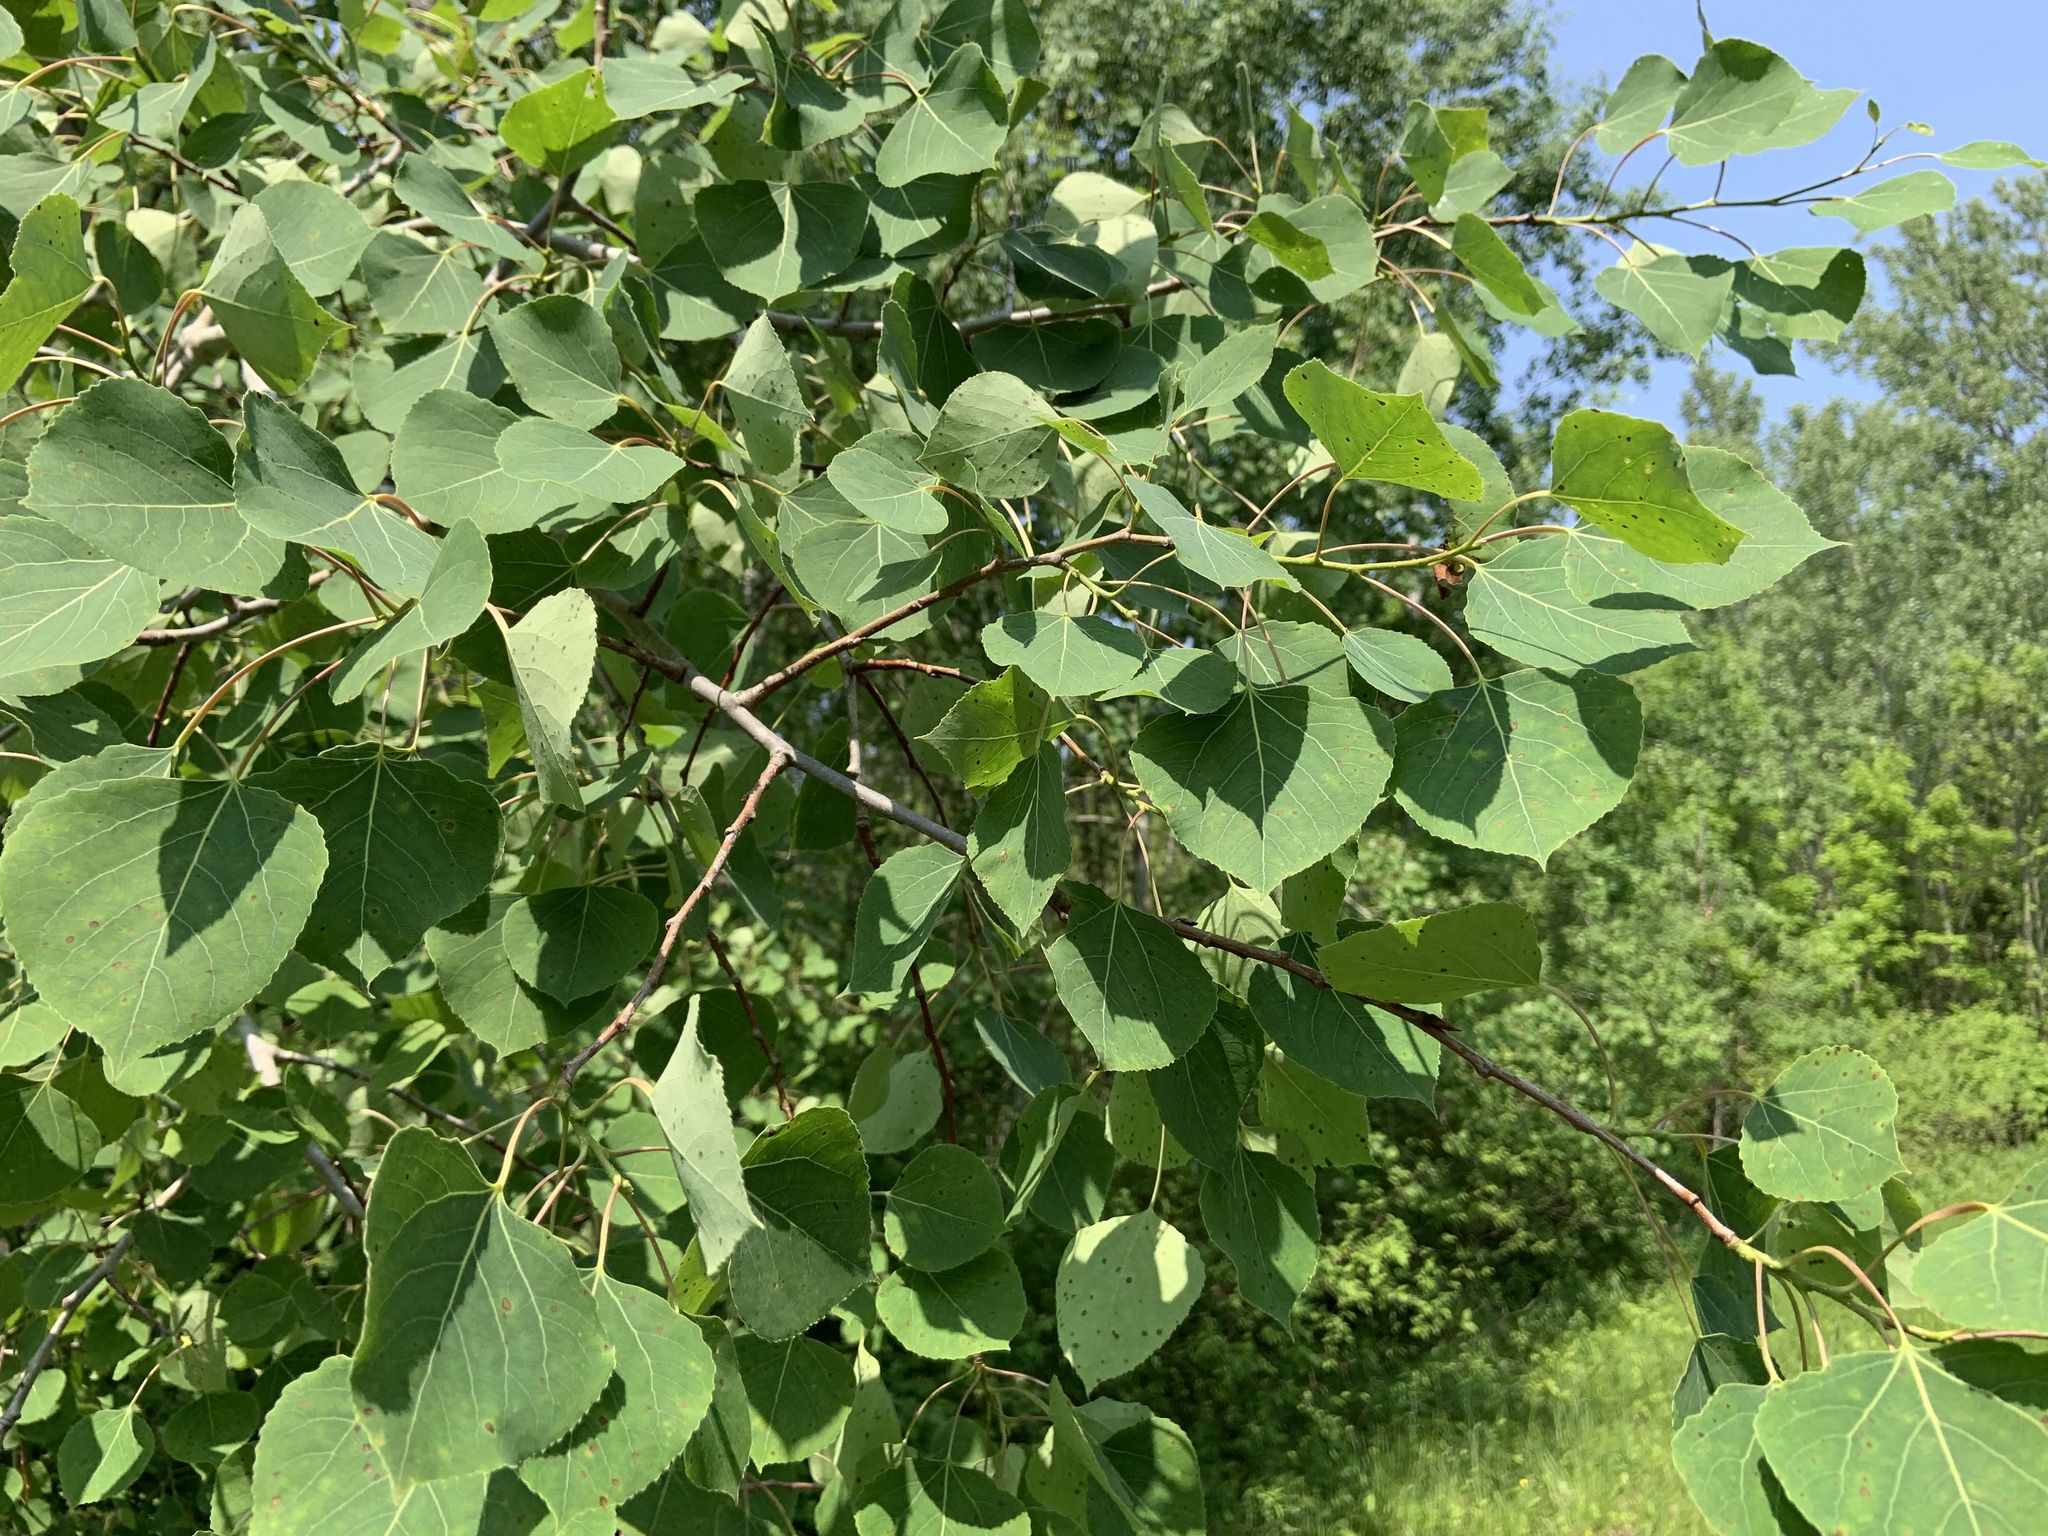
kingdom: Plantae
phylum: Tracheophyta
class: Magnoliopsida
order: Malpighiales
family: Salicaceae
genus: Populus
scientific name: Populus tremuloides
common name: Quaking aspen
